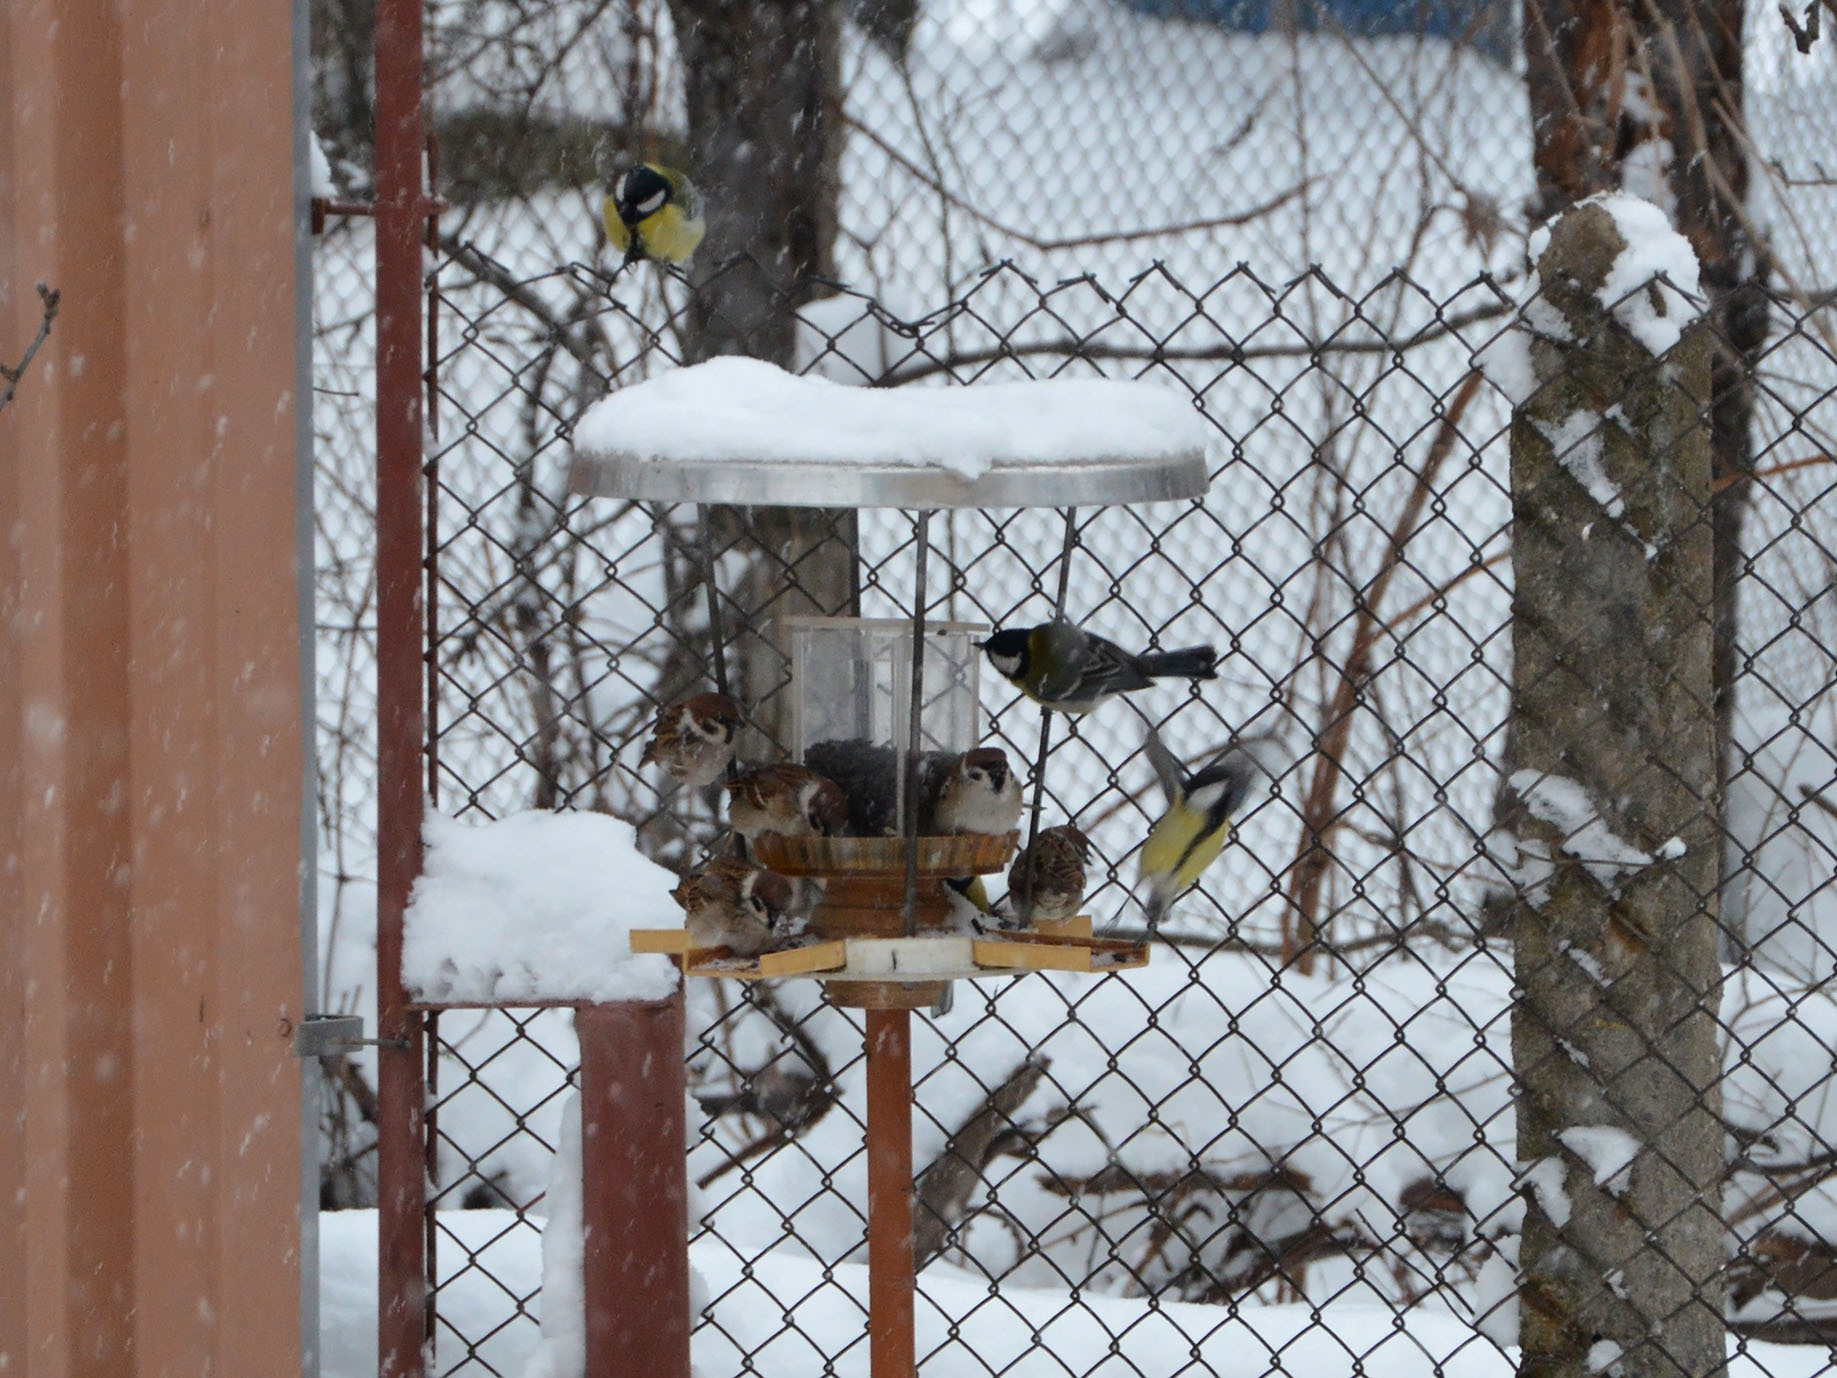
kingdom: Animalia
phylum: Chordata
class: Aves
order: Passeriformes
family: Passeridae
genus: Passer
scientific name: Passer montanus
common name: Eurasian tree sparrow
